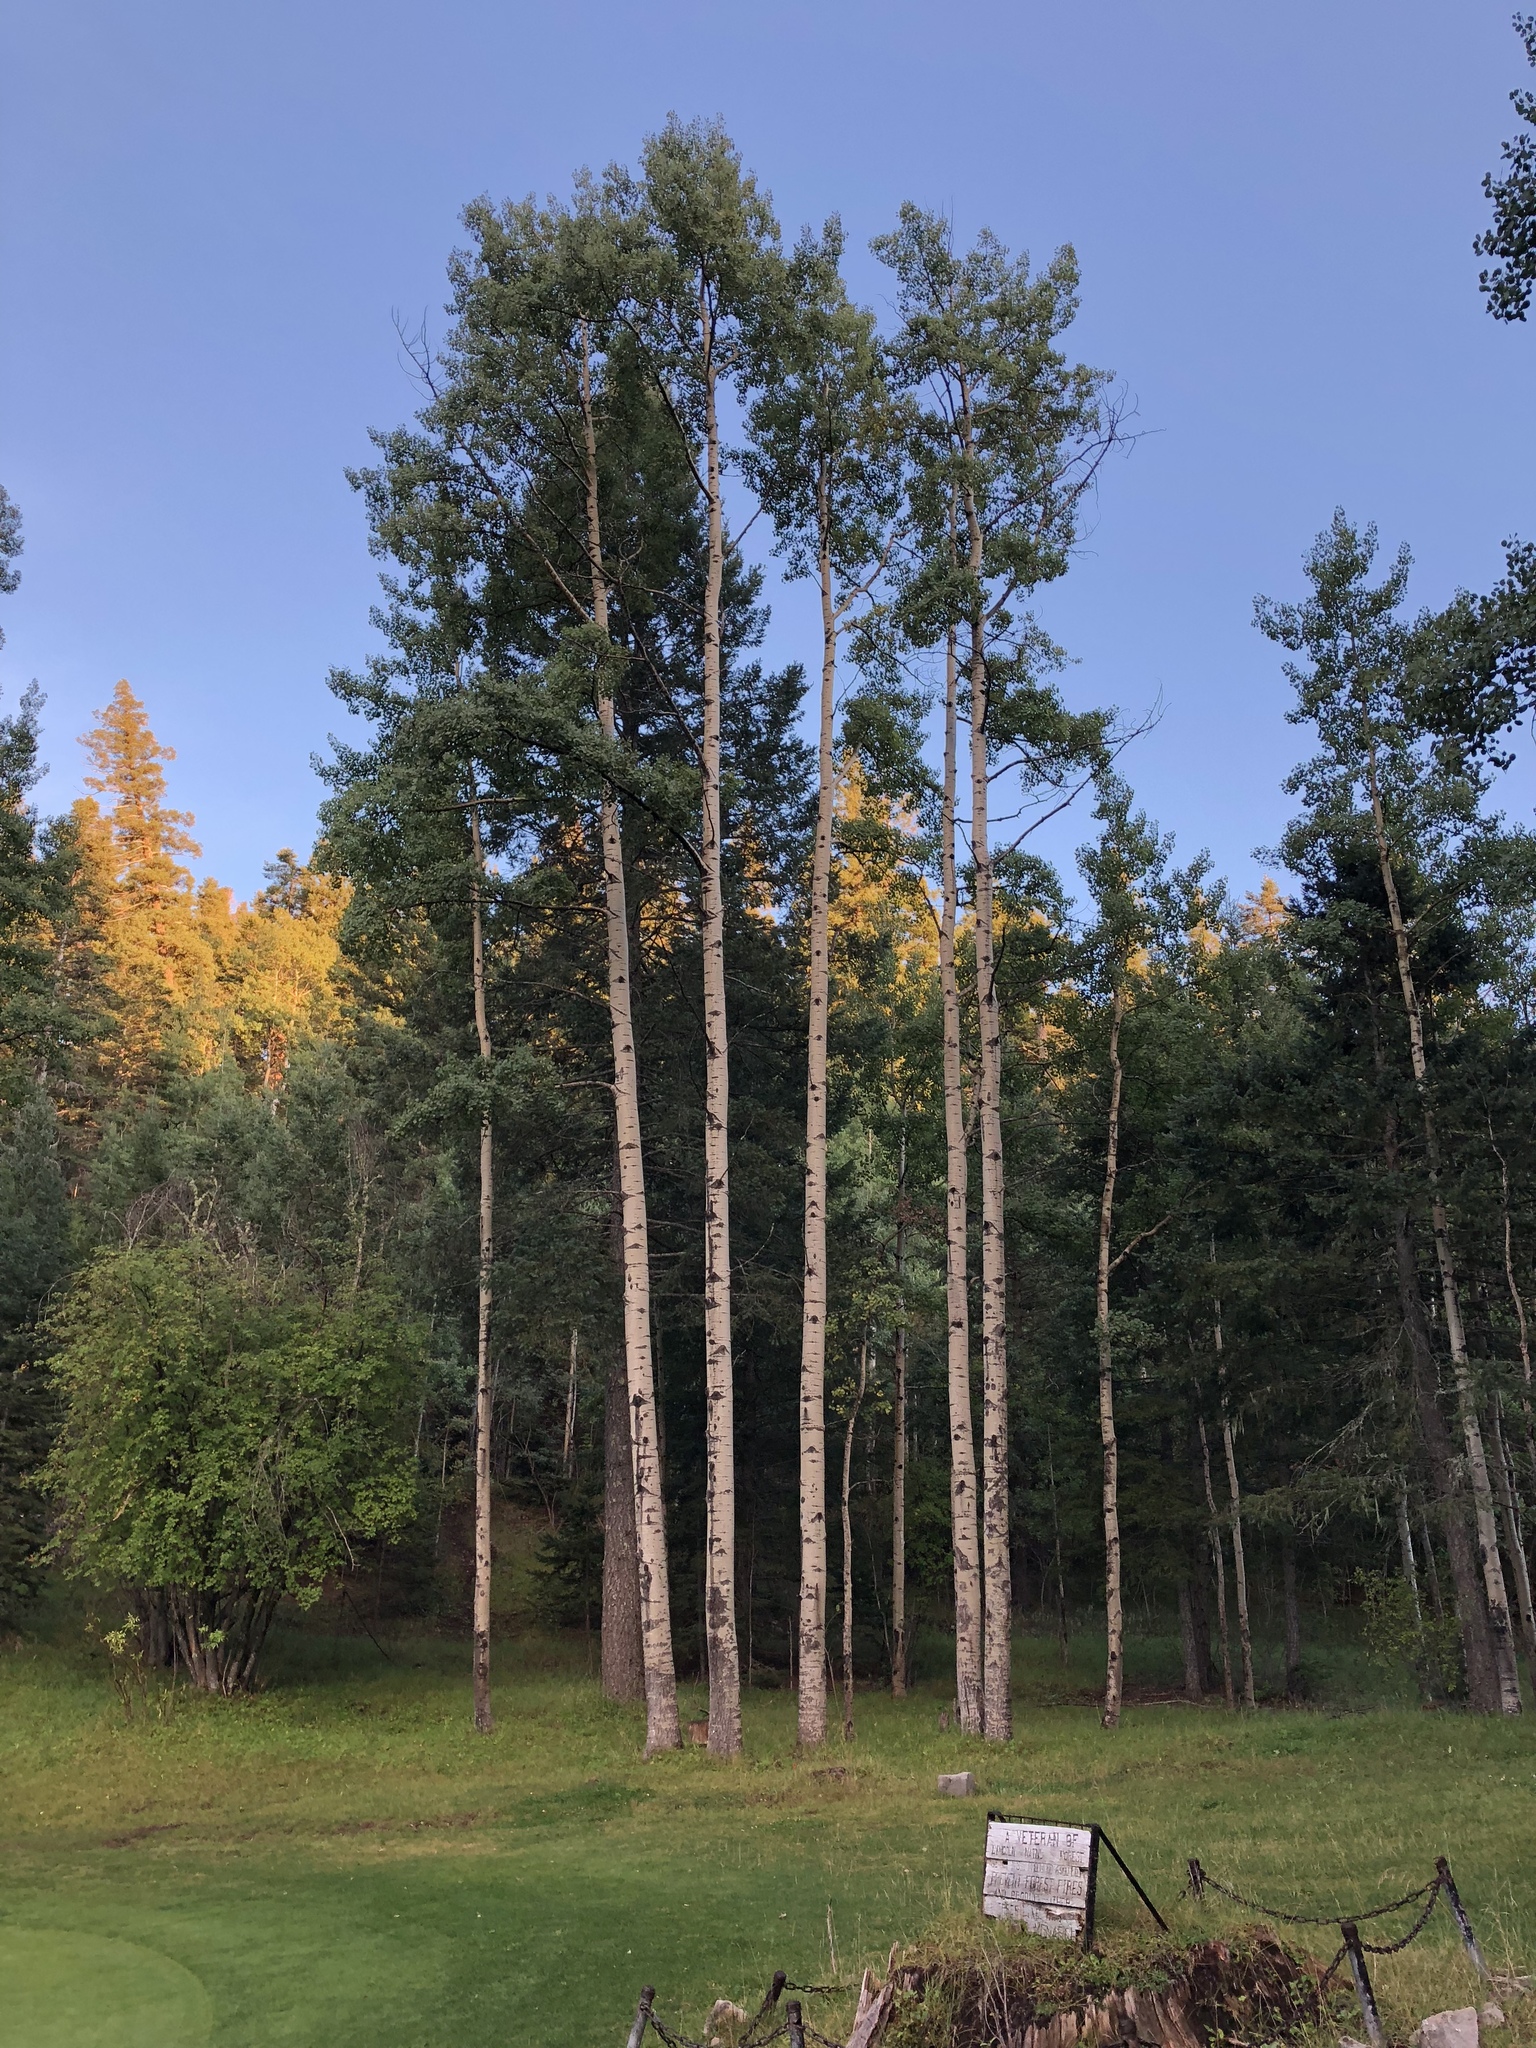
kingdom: Plantae
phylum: Tracheophyta
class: Magnoliopsida
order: Malpighiales
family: Salicaceae
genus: Populus
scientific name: Populus tremuloides
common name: Quaking aspen
